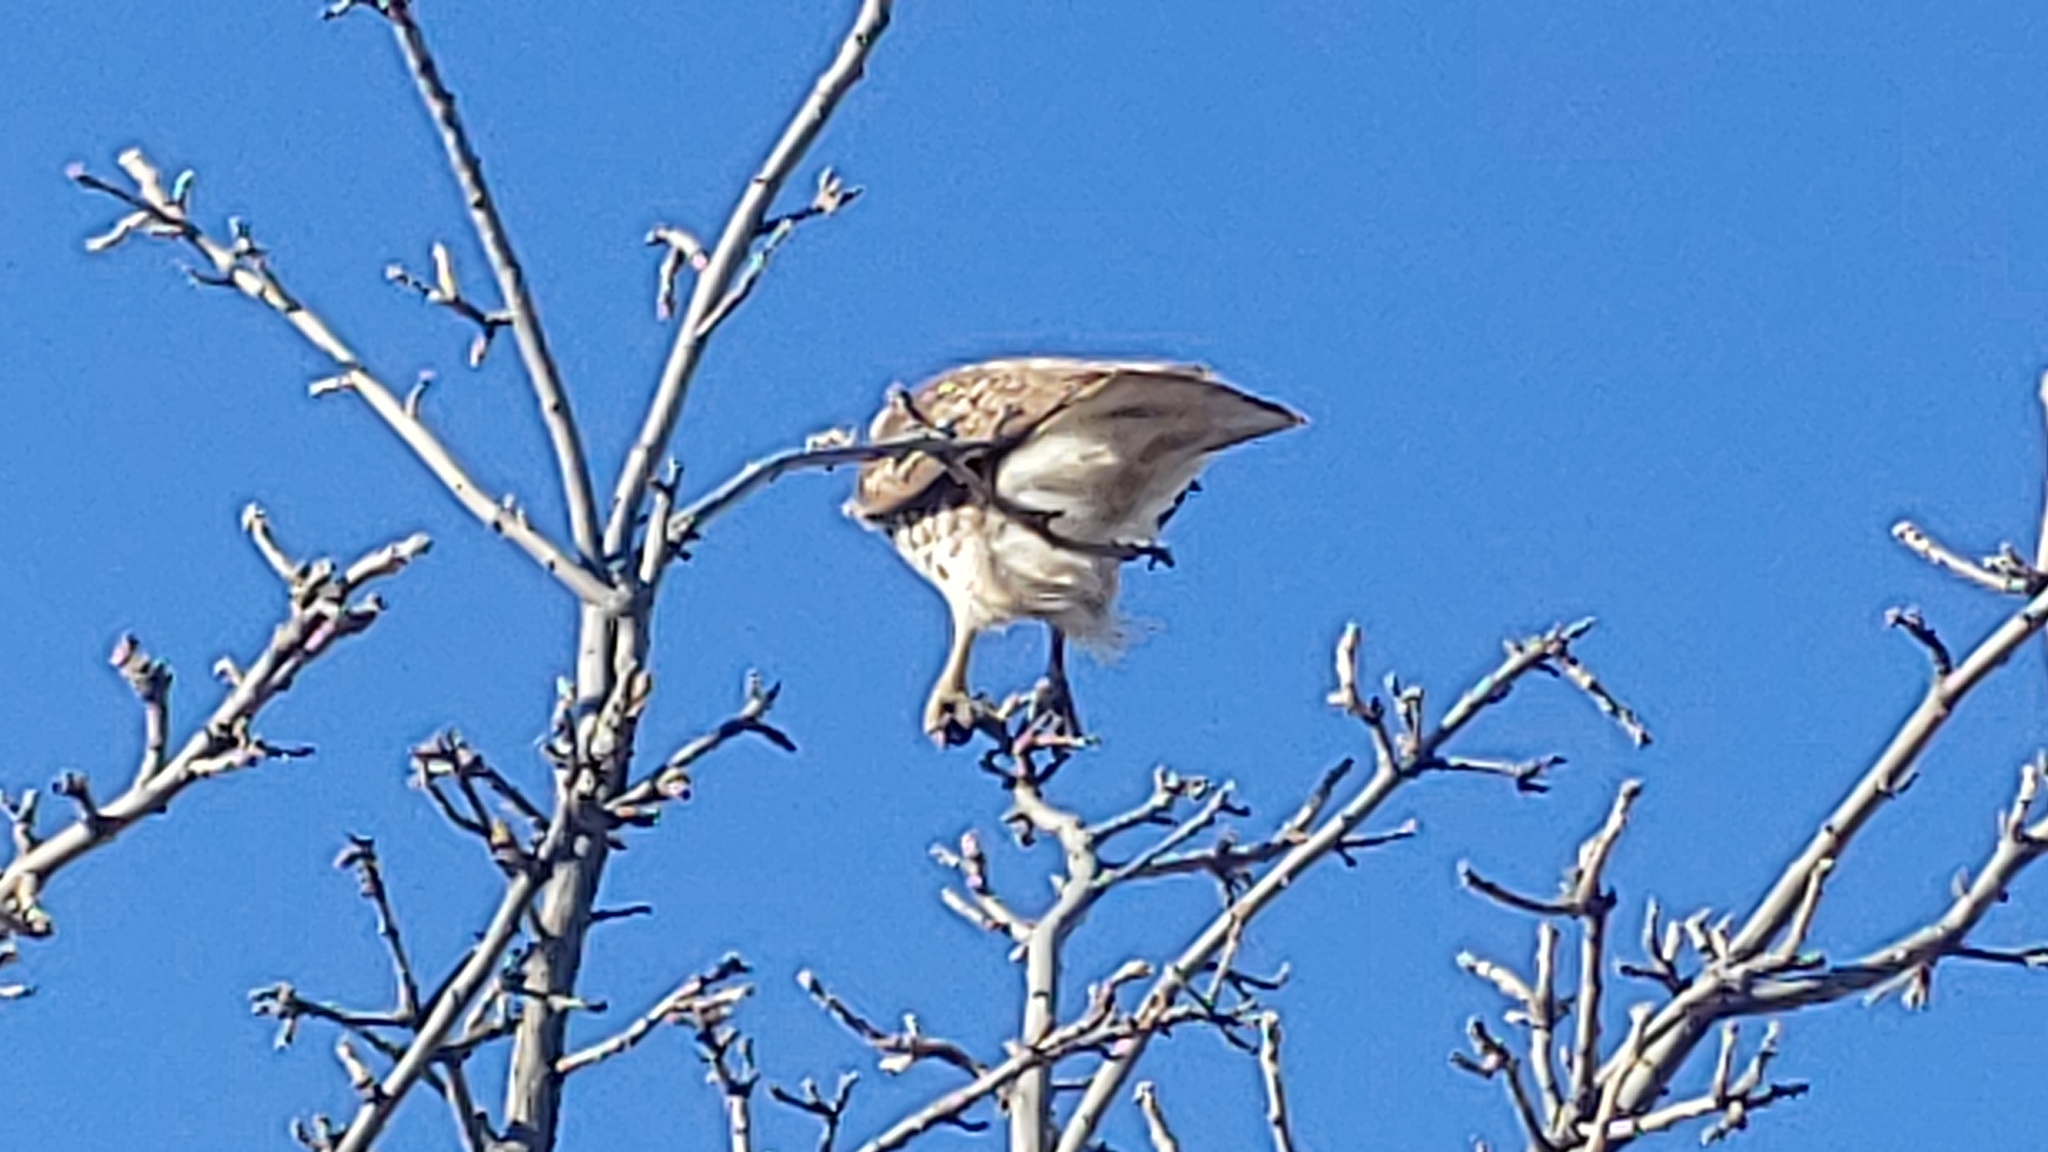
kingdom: Animalia
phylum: Chordata
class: Aves
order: Accipitriformes
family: Accipitridae
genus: Buteo
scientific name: Buteo jamaicensis
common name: Red-tailed hawk
